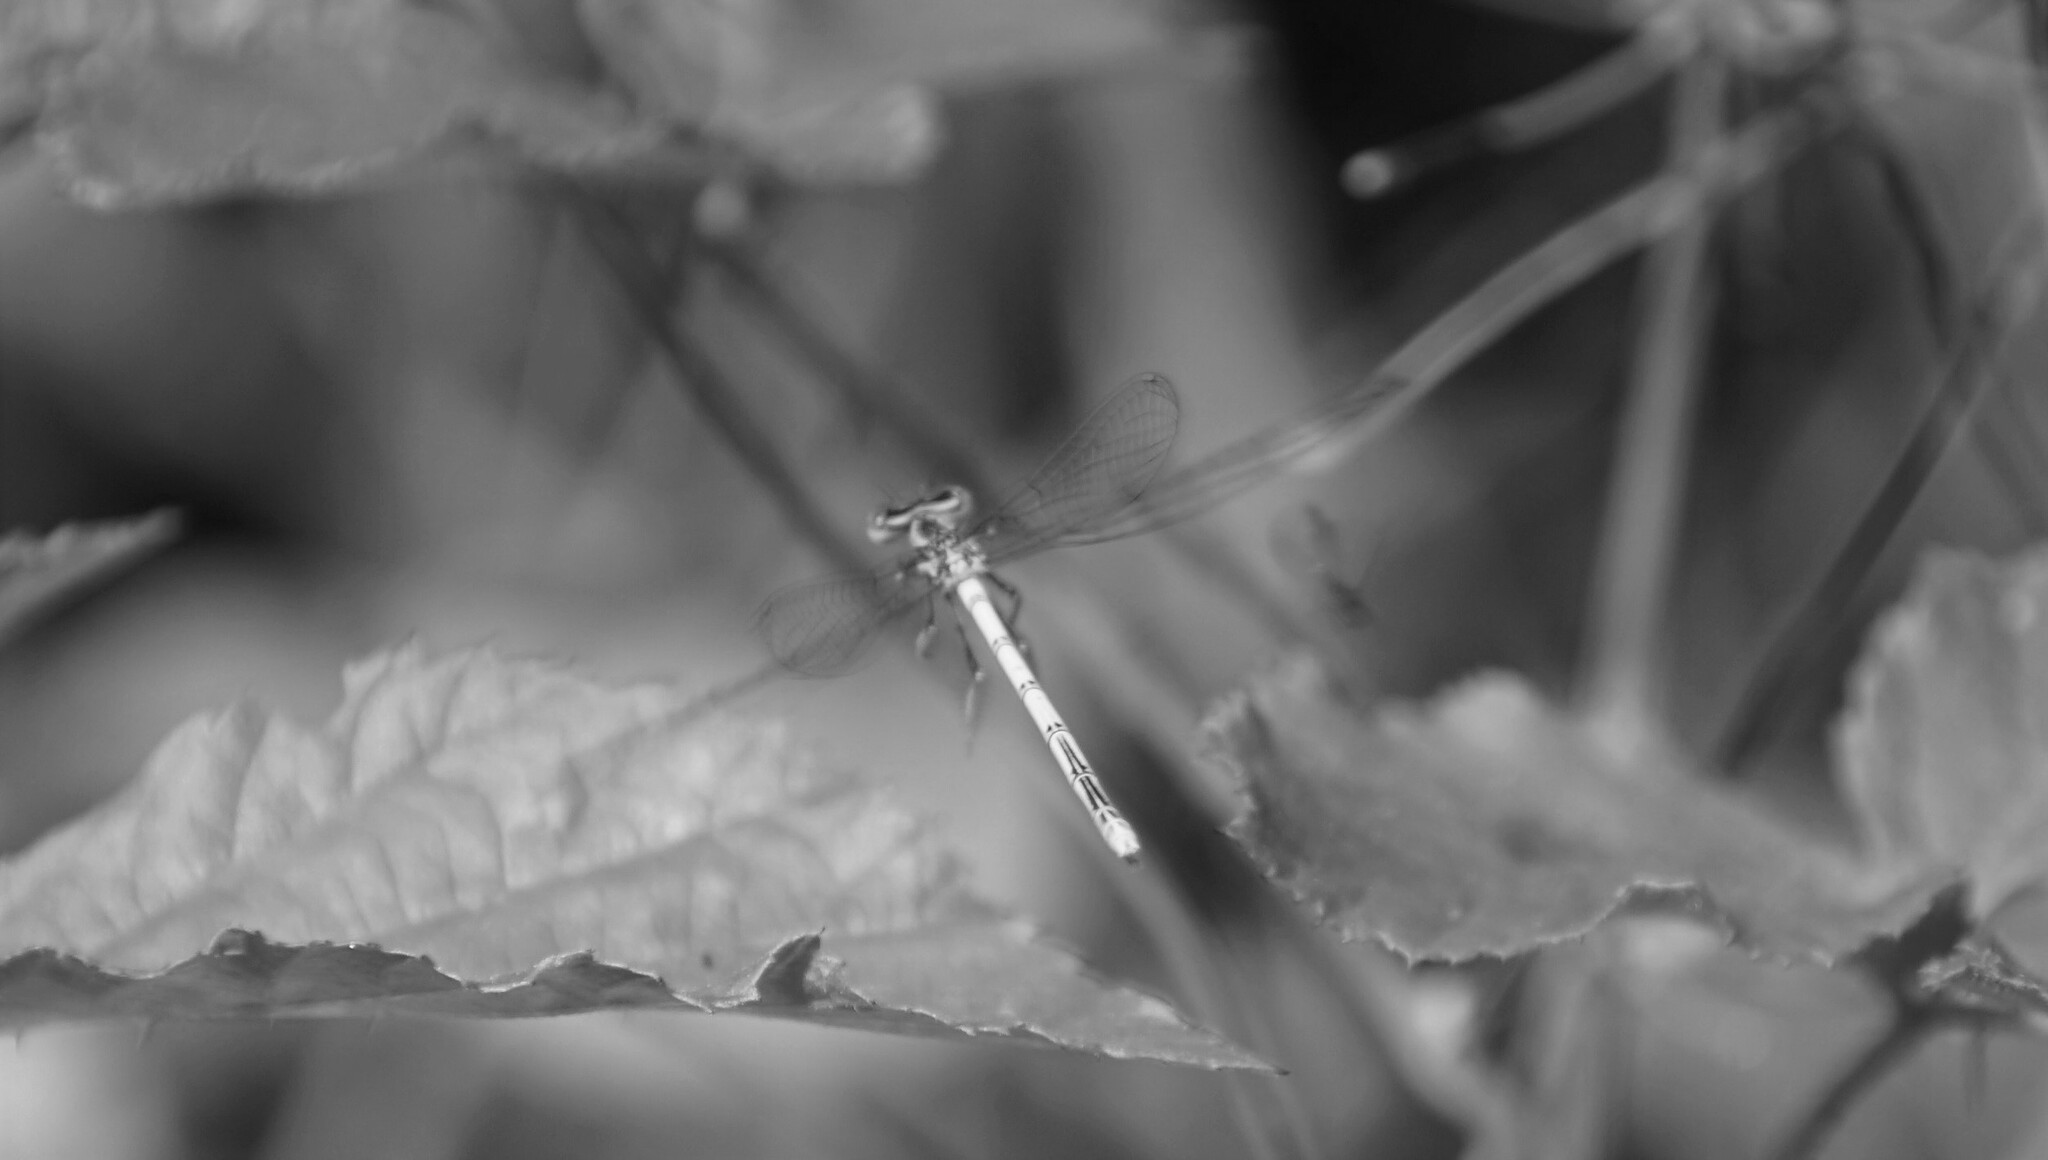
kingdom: Animalia
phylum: Arthropoda
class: Insecta
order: Odonata
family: Platycnemididae
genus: Platycnemis
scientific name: Platycnemis pennipes
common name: White-legged damselfly
